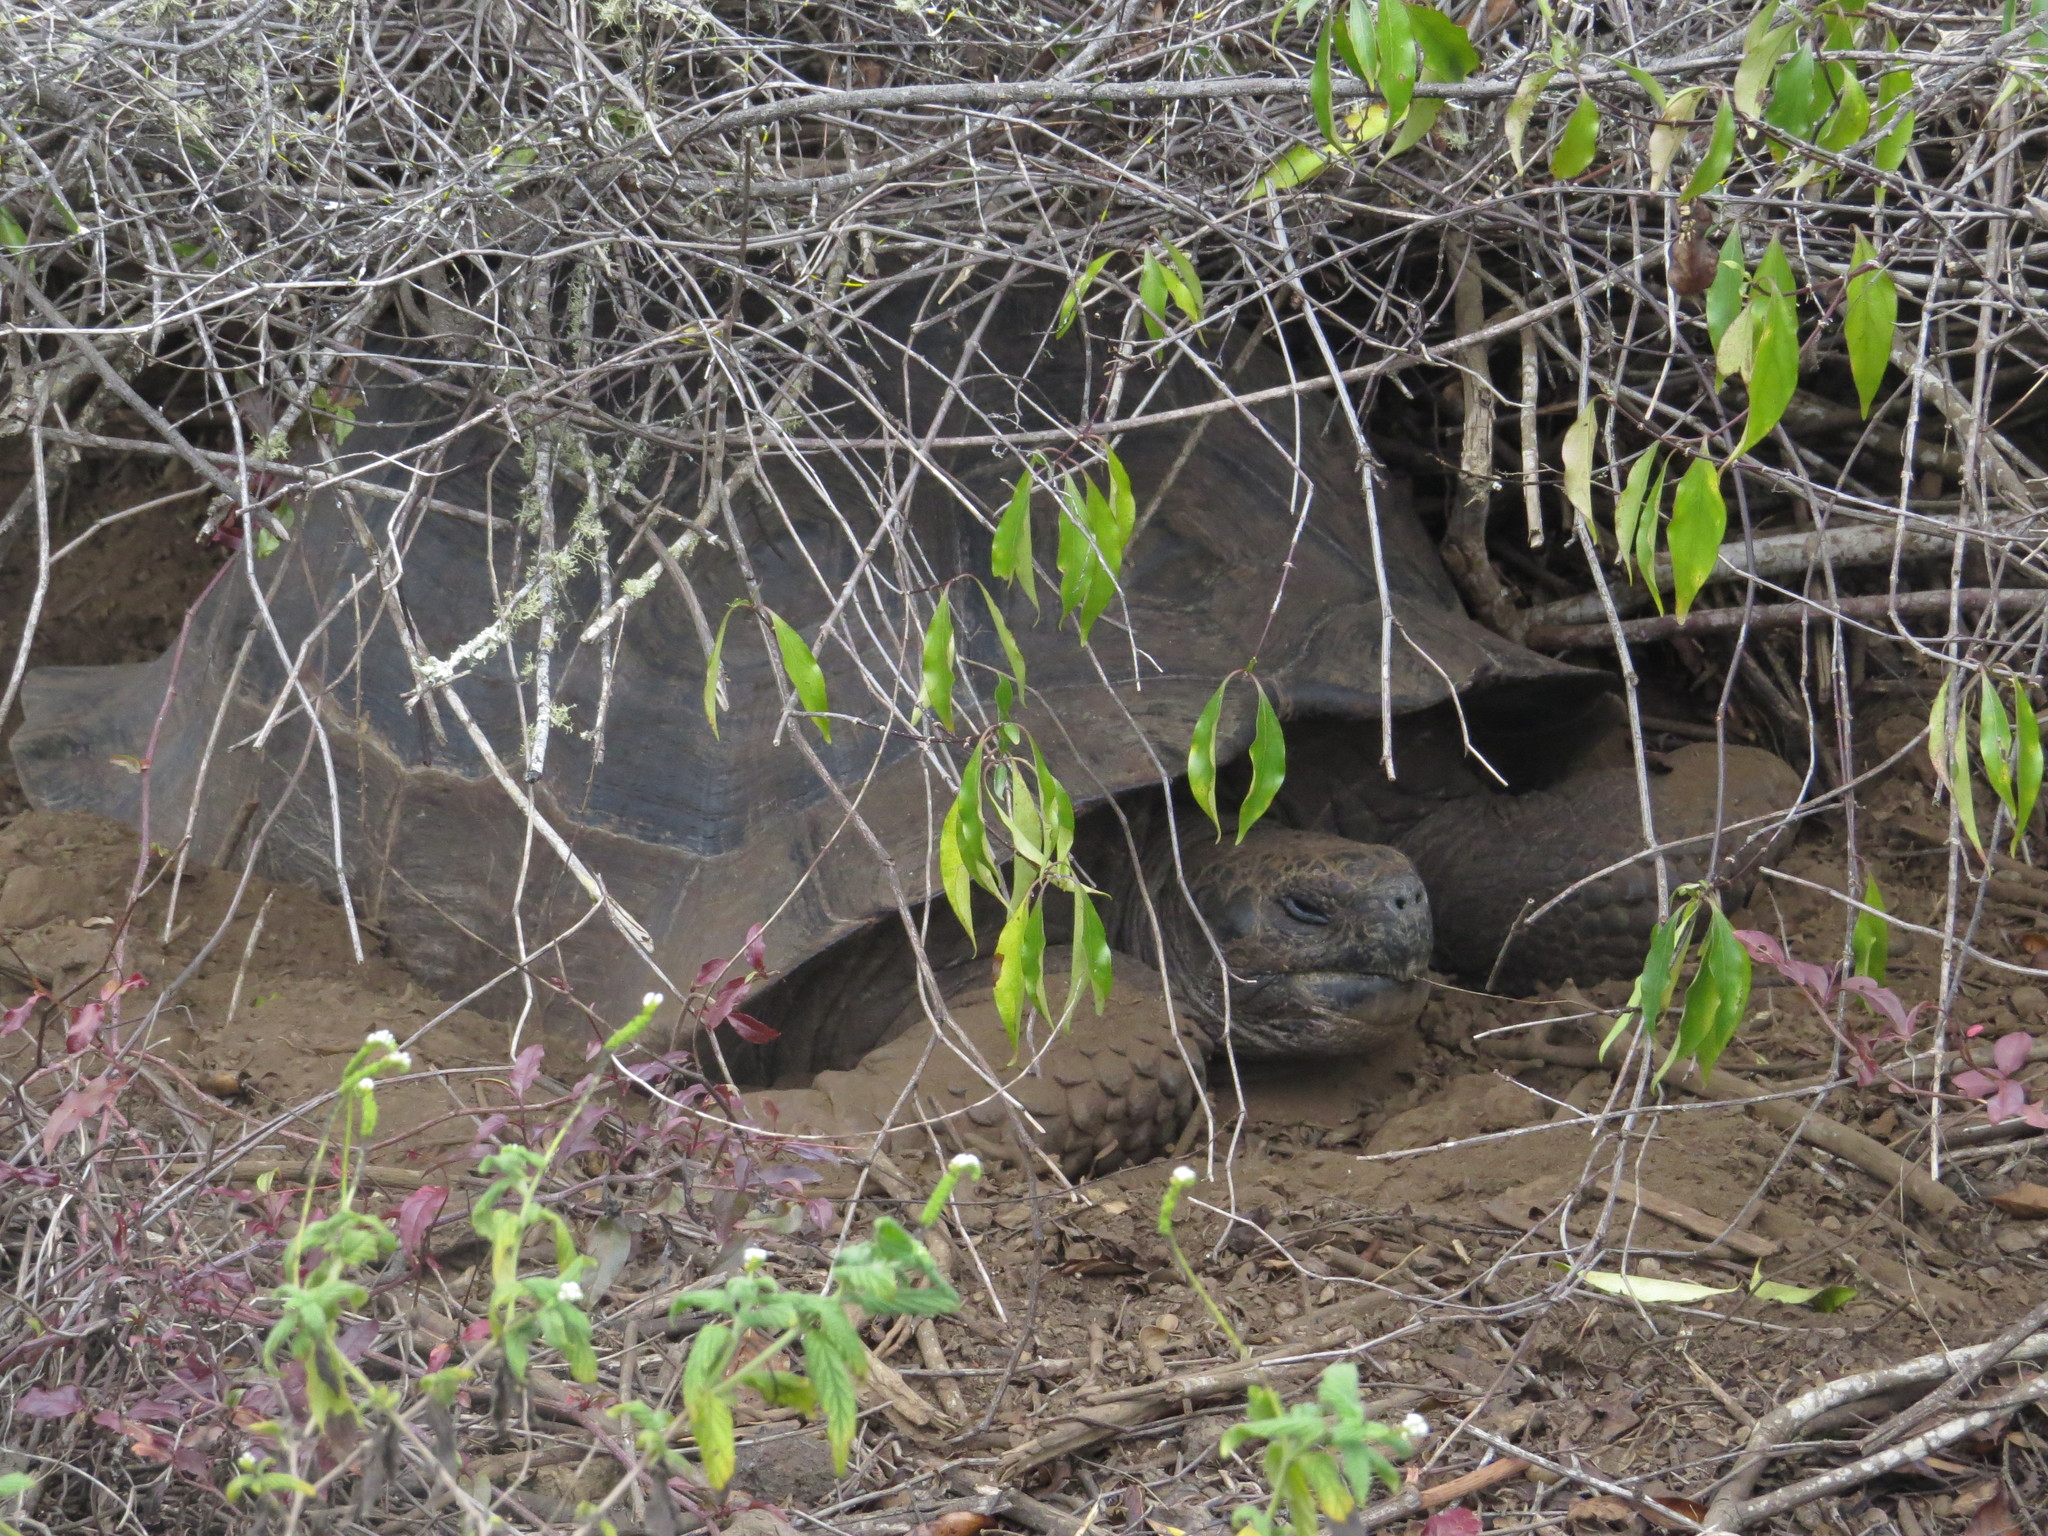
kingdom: Animalia
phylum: Chordata
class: Testudines
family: Testudinidae
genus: Chelonoidis
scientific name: Chelonoidis guntheri
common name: Sierra negra giant tortoise
